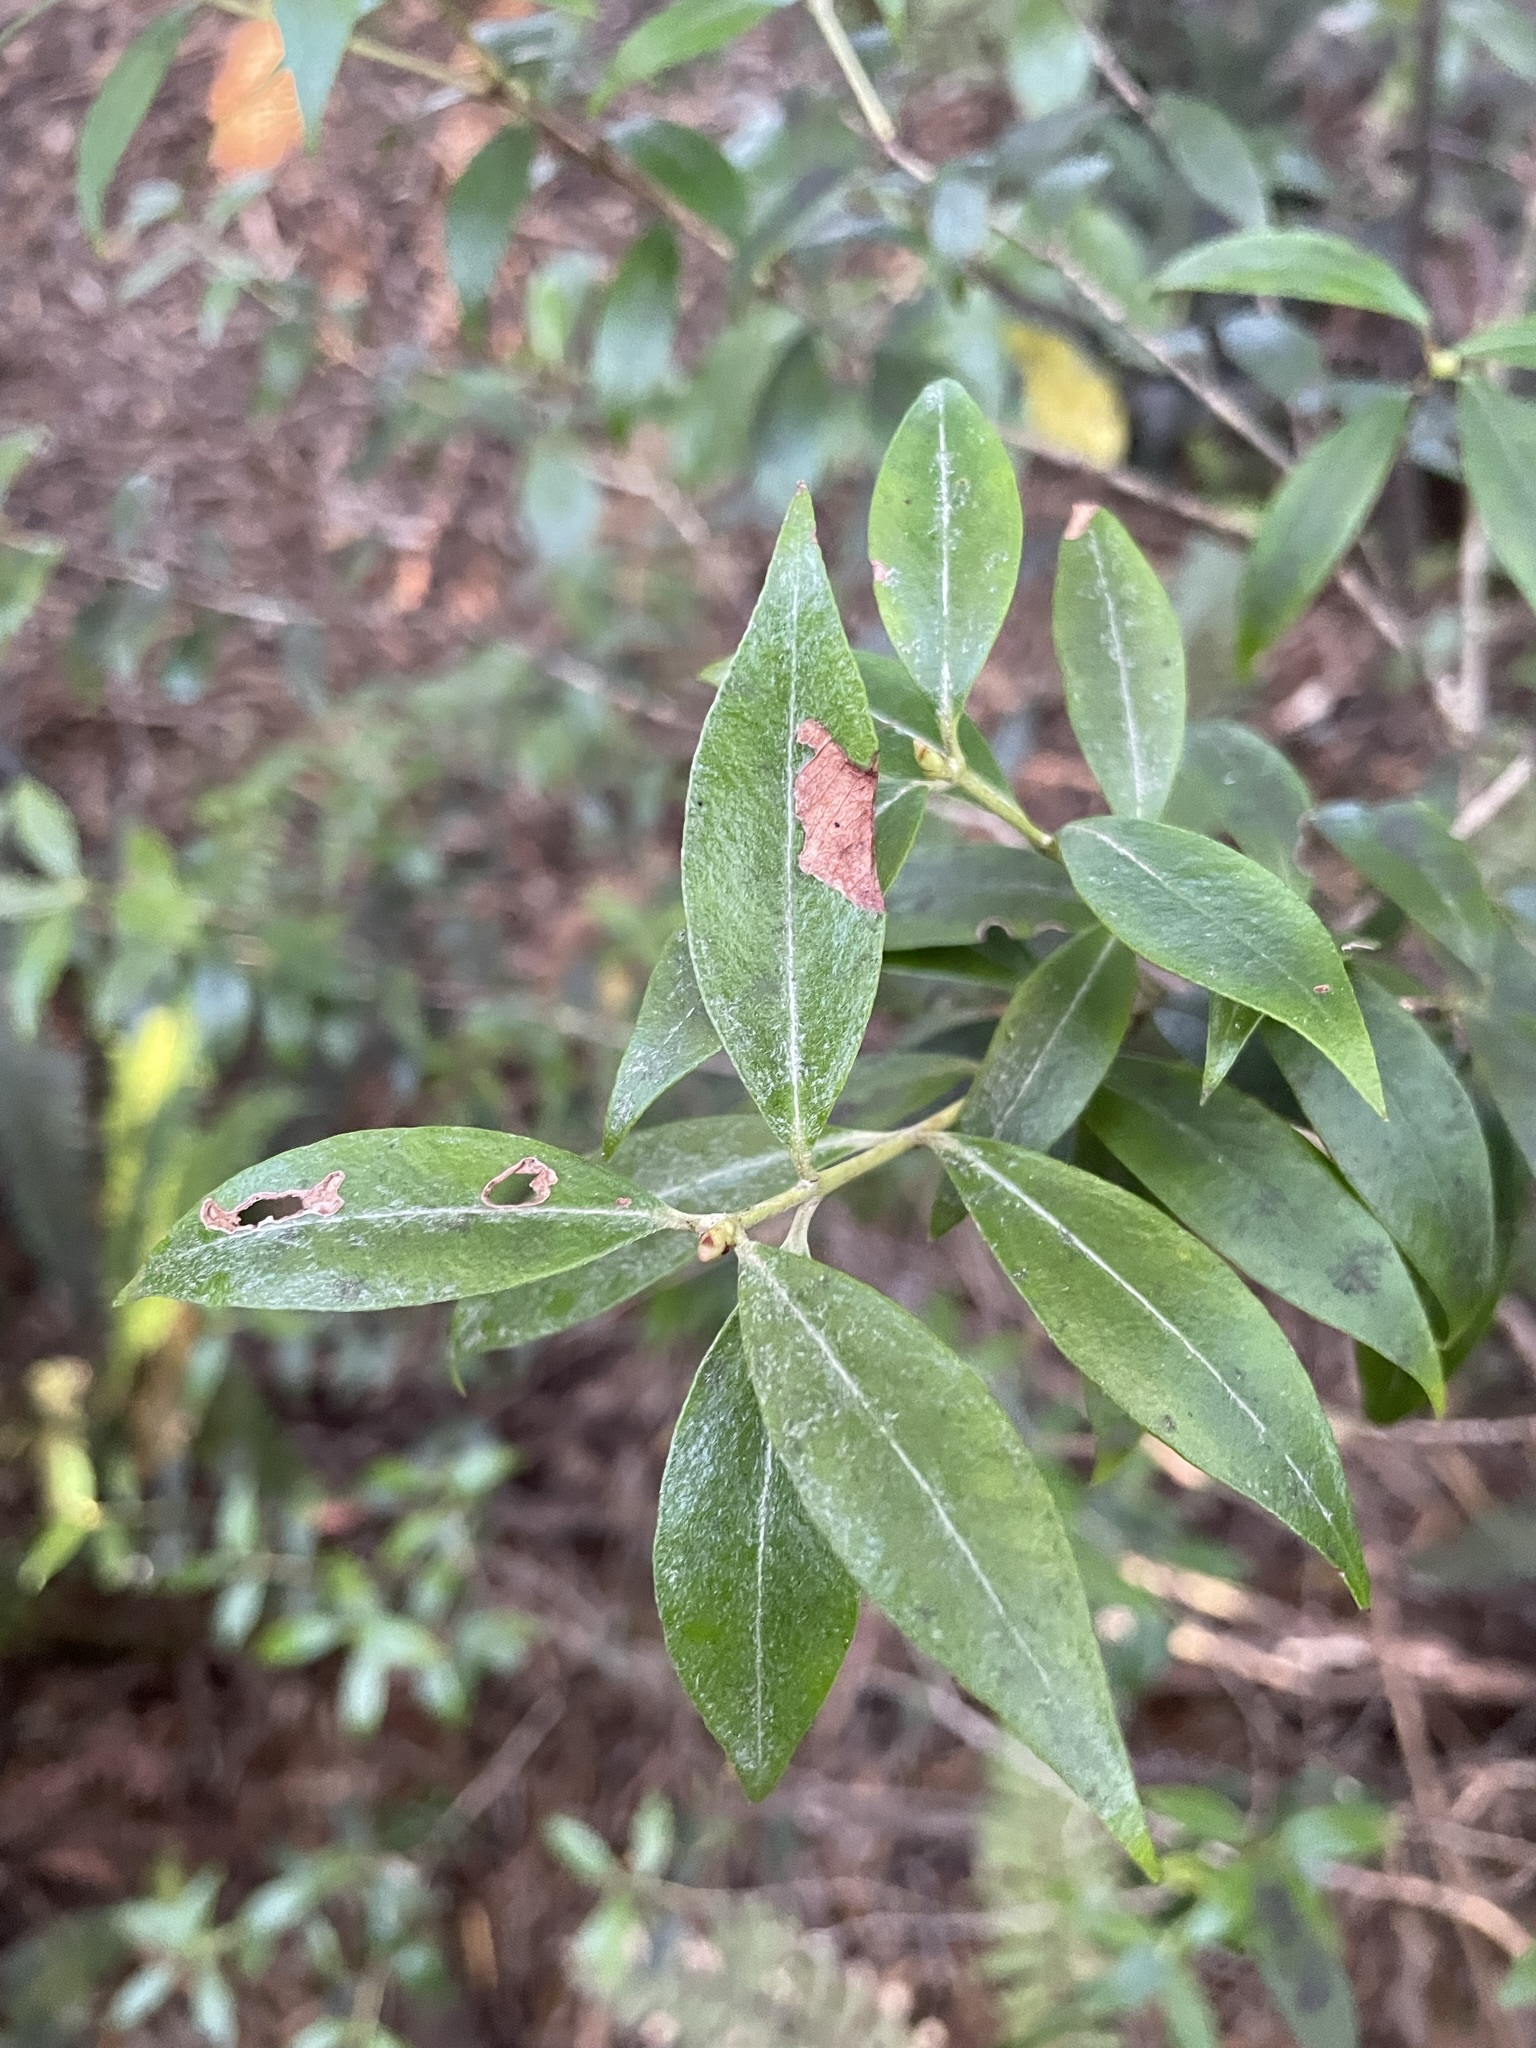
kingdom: Plantae
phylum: Tracheophyta
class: Magnoliopsida
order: Myrtales
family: Myrtaceae
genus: Metrosideros
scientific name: Metrosideros umbellata
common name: Southern rata
